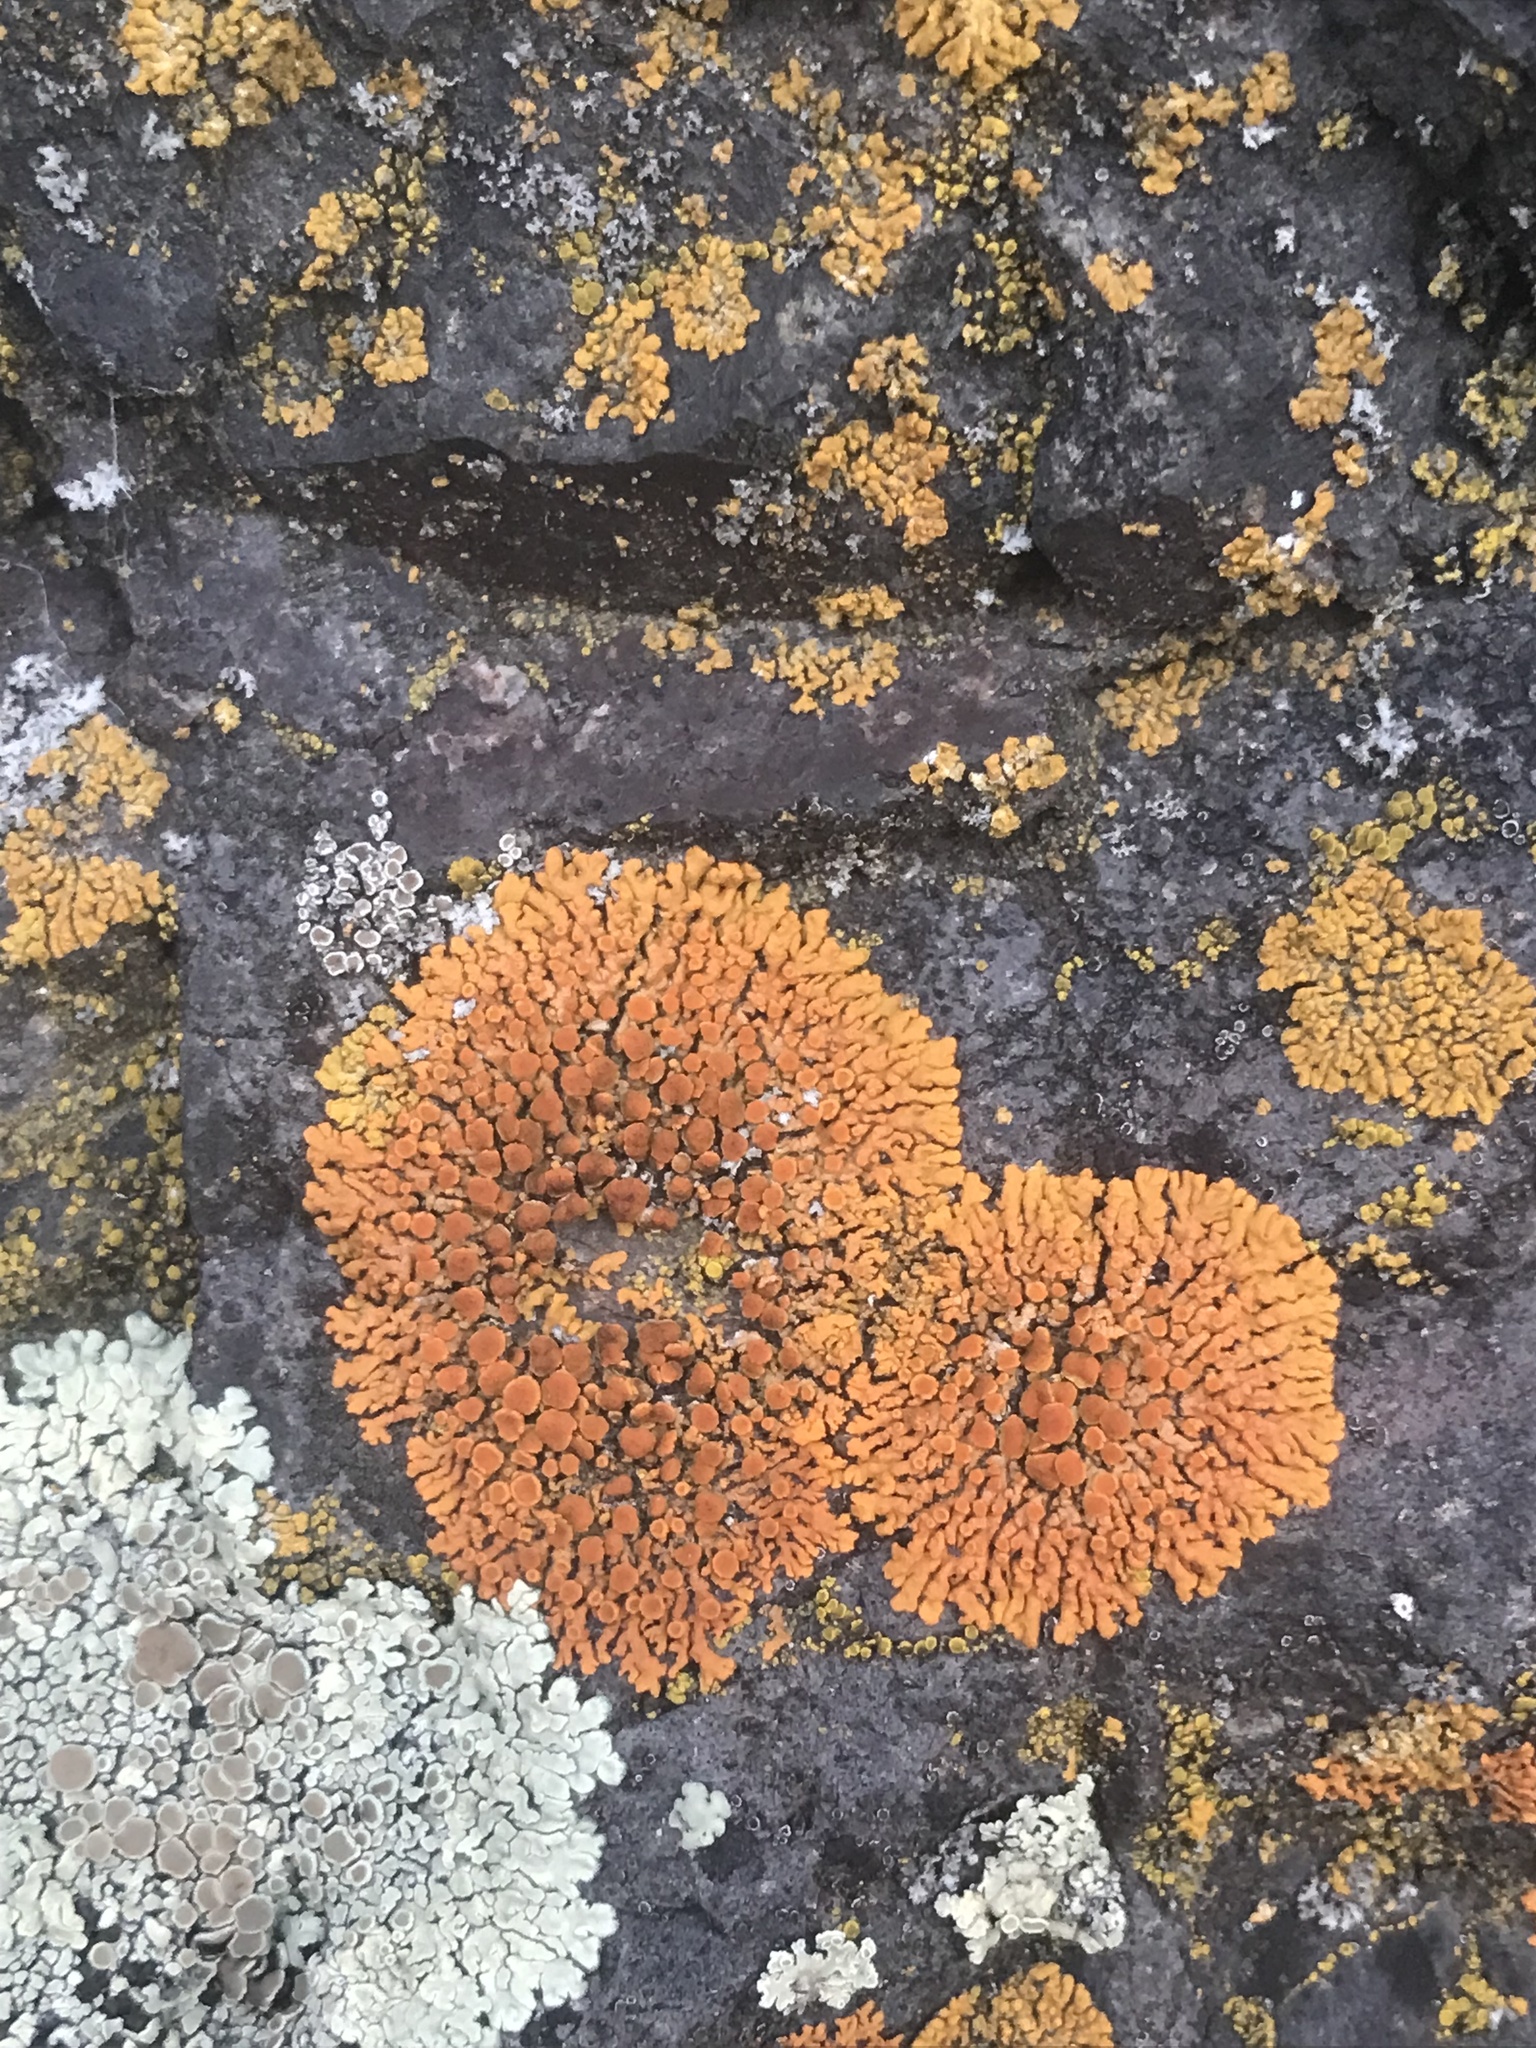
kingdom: Fungi
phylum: Ascomycota
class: Lecanoromycetes
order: Teloschistales
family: Teloschistaceae
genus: Xanthoria
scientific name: Xanthoria elegans
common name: Elegant sunburst lichen
